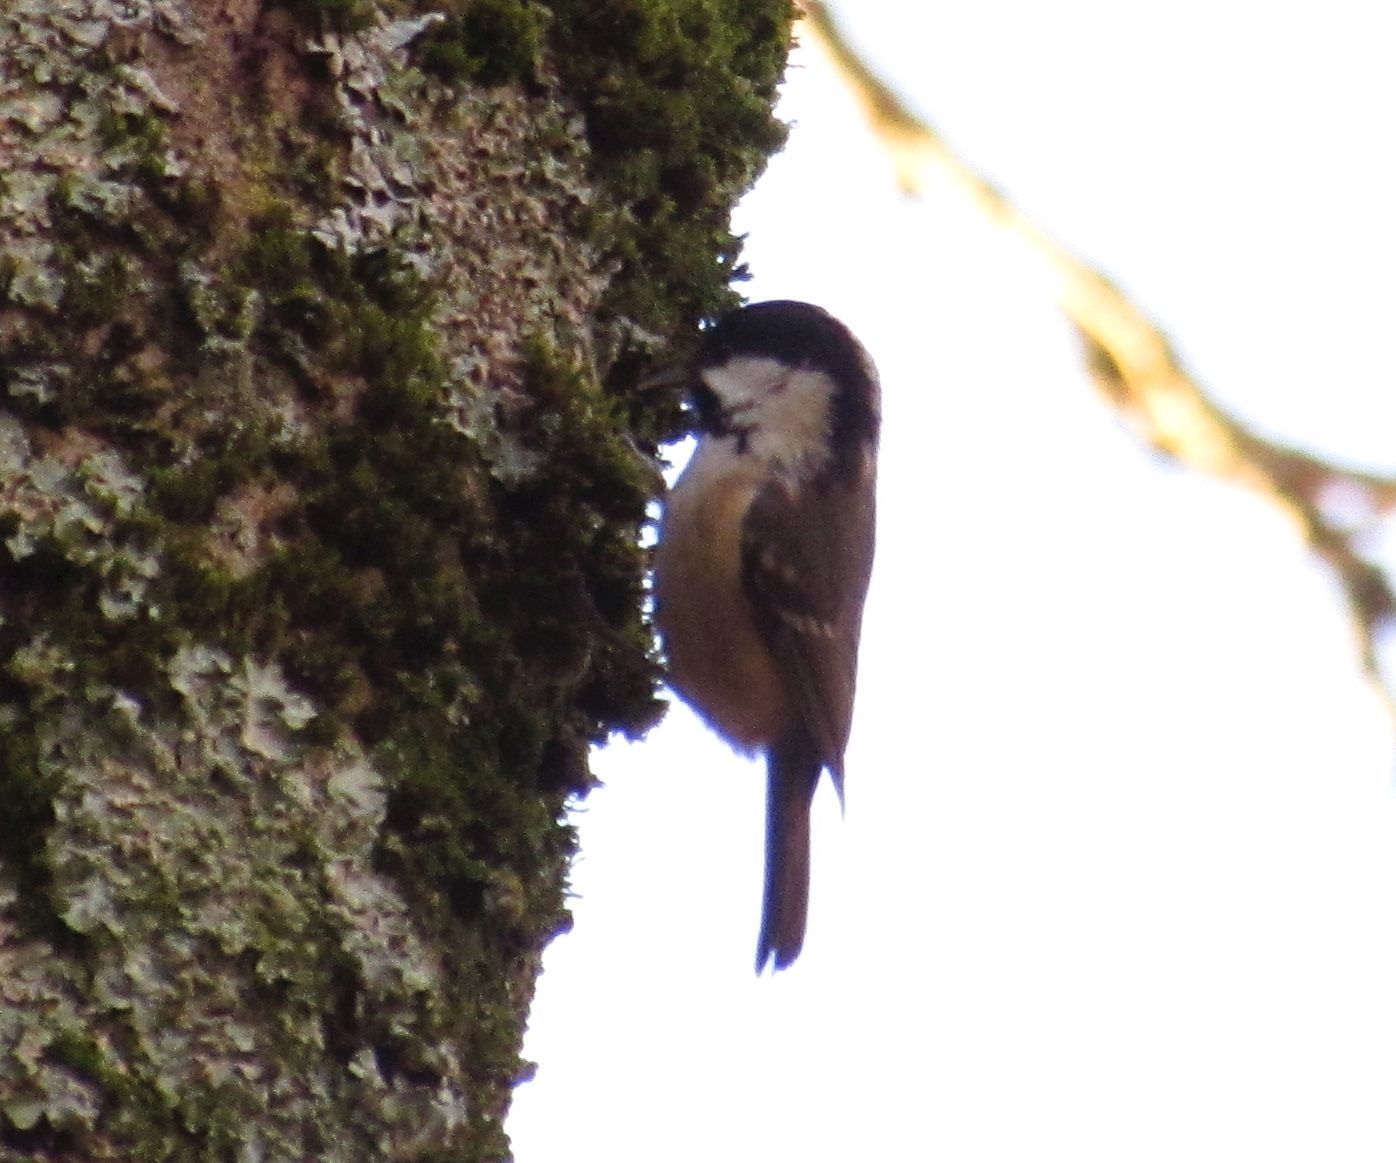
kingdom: Animalia
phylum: Chordata
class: Aves
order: Passeriformes
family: Paridae
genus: Periparus
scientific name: Periparus ater
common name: Coal tit
